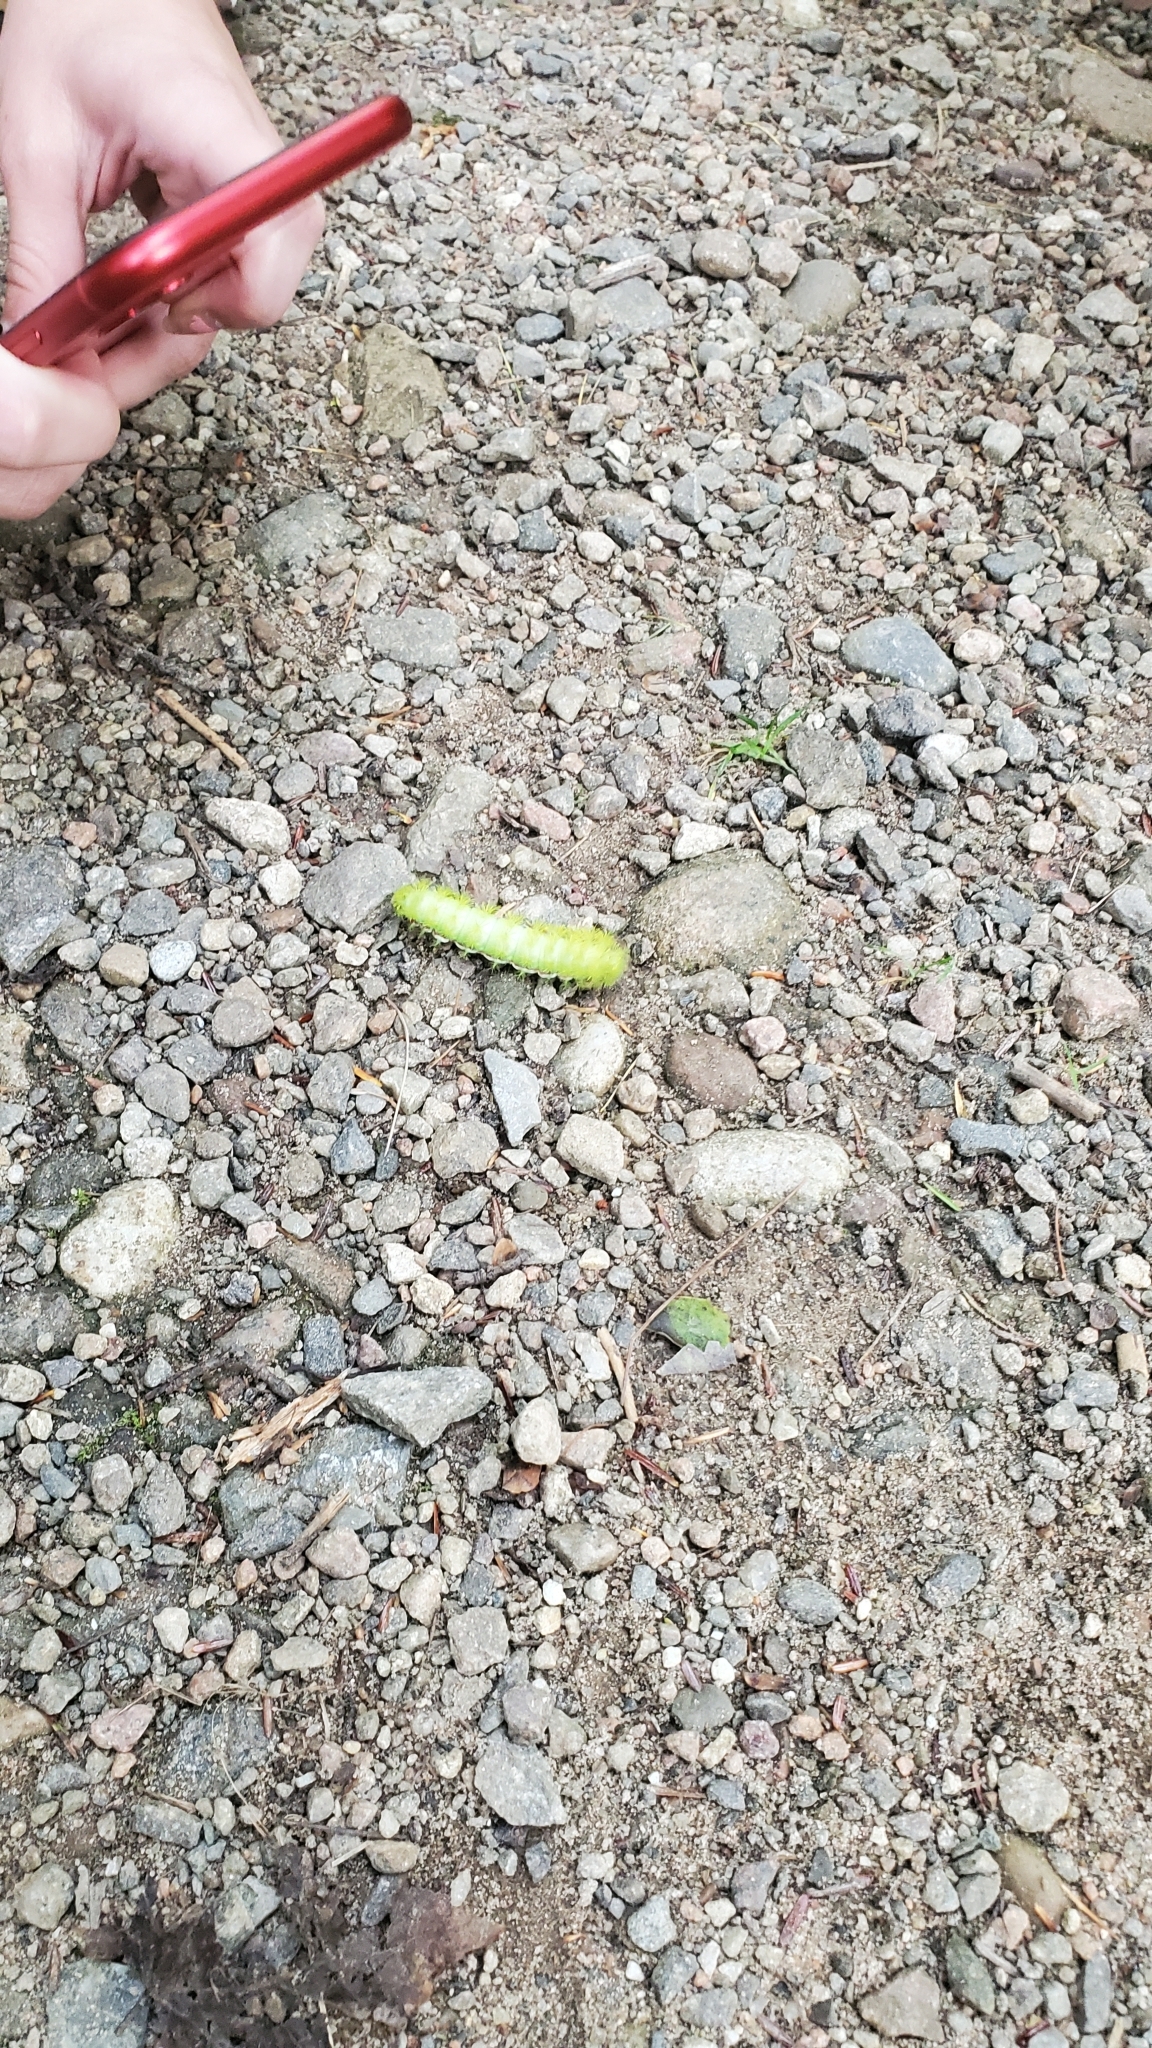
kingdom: Animalia
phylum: Arthropoda
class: Insecta
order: Lepidoptera
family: Saturniidae
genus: Automeris
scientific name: Automeris io
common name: Io moth
